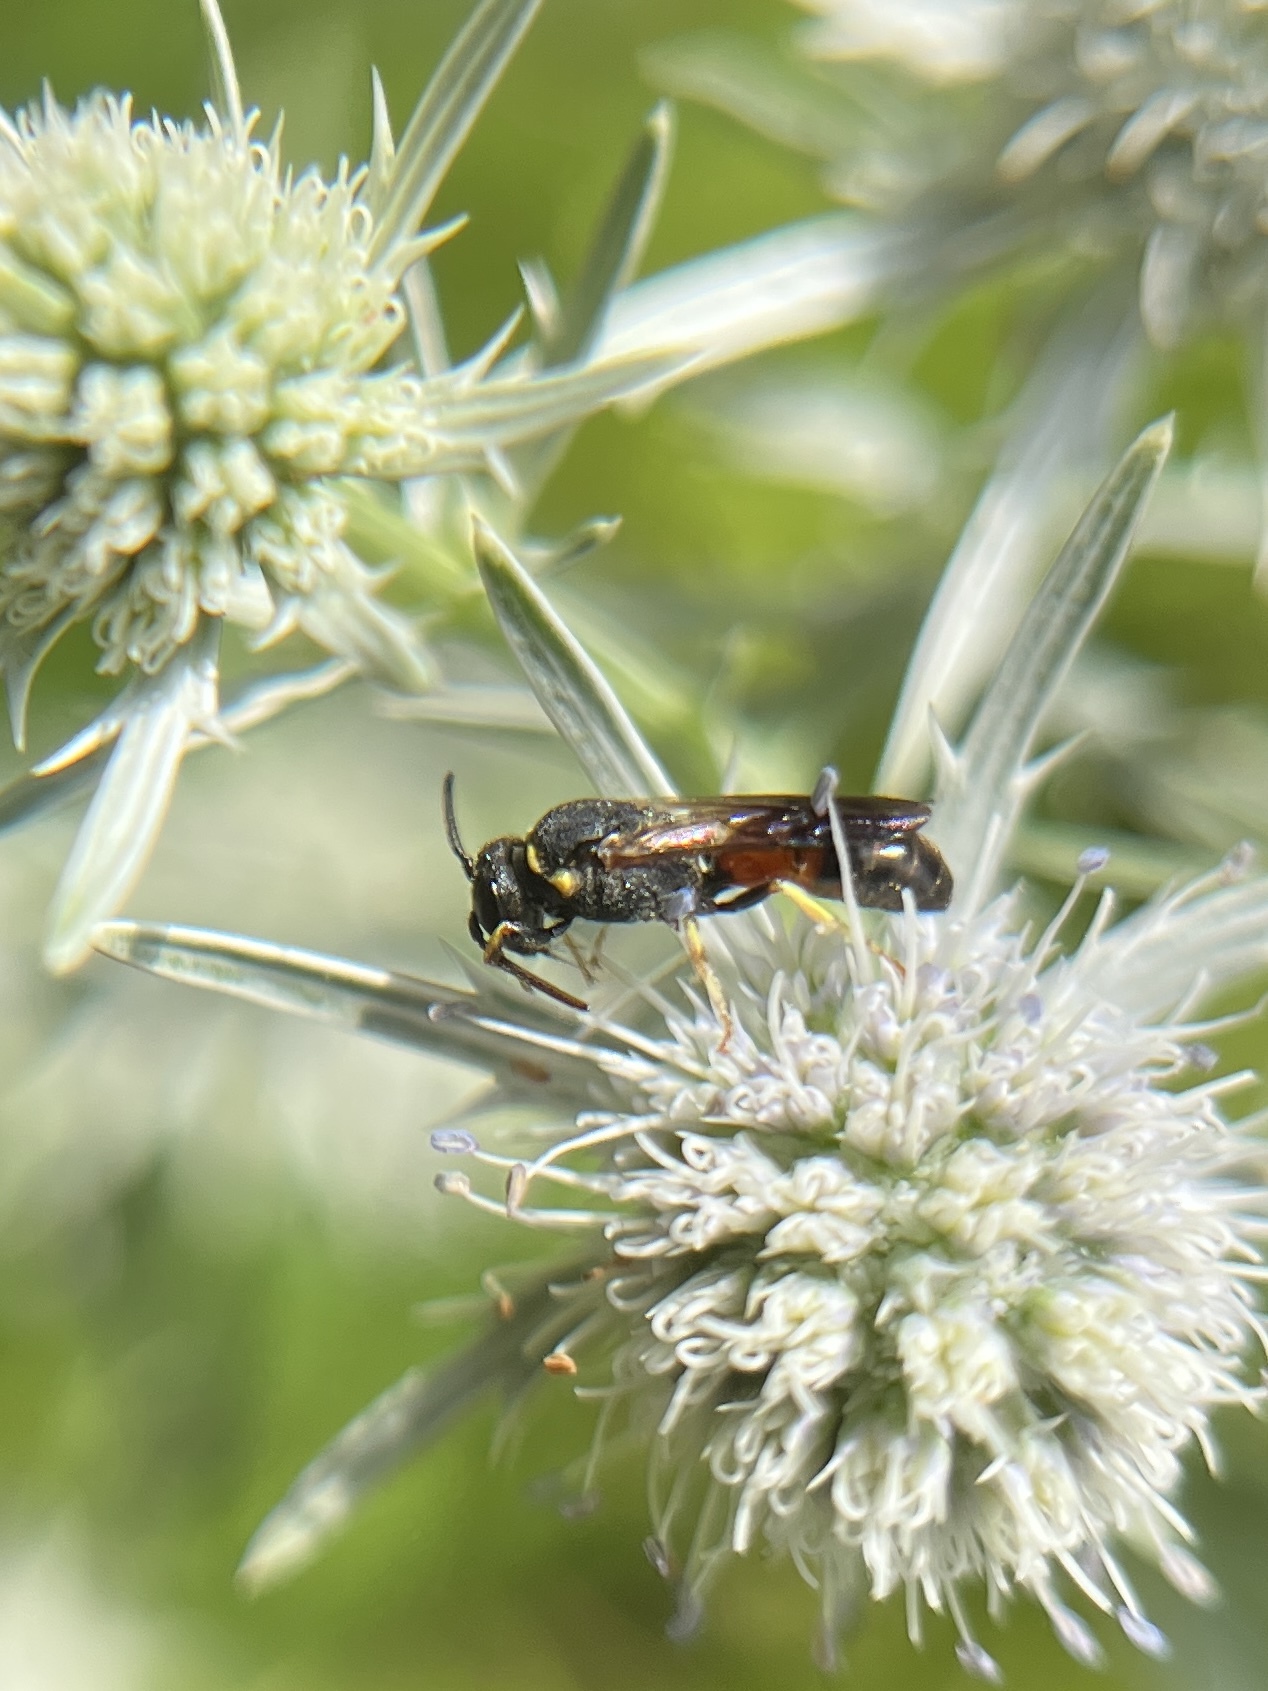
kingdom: Animalia
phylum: Arthropoda
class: Insecta
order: Hymenoptera
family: Colletidae
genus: Hylaeus
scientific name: Hylaeus ornatus
